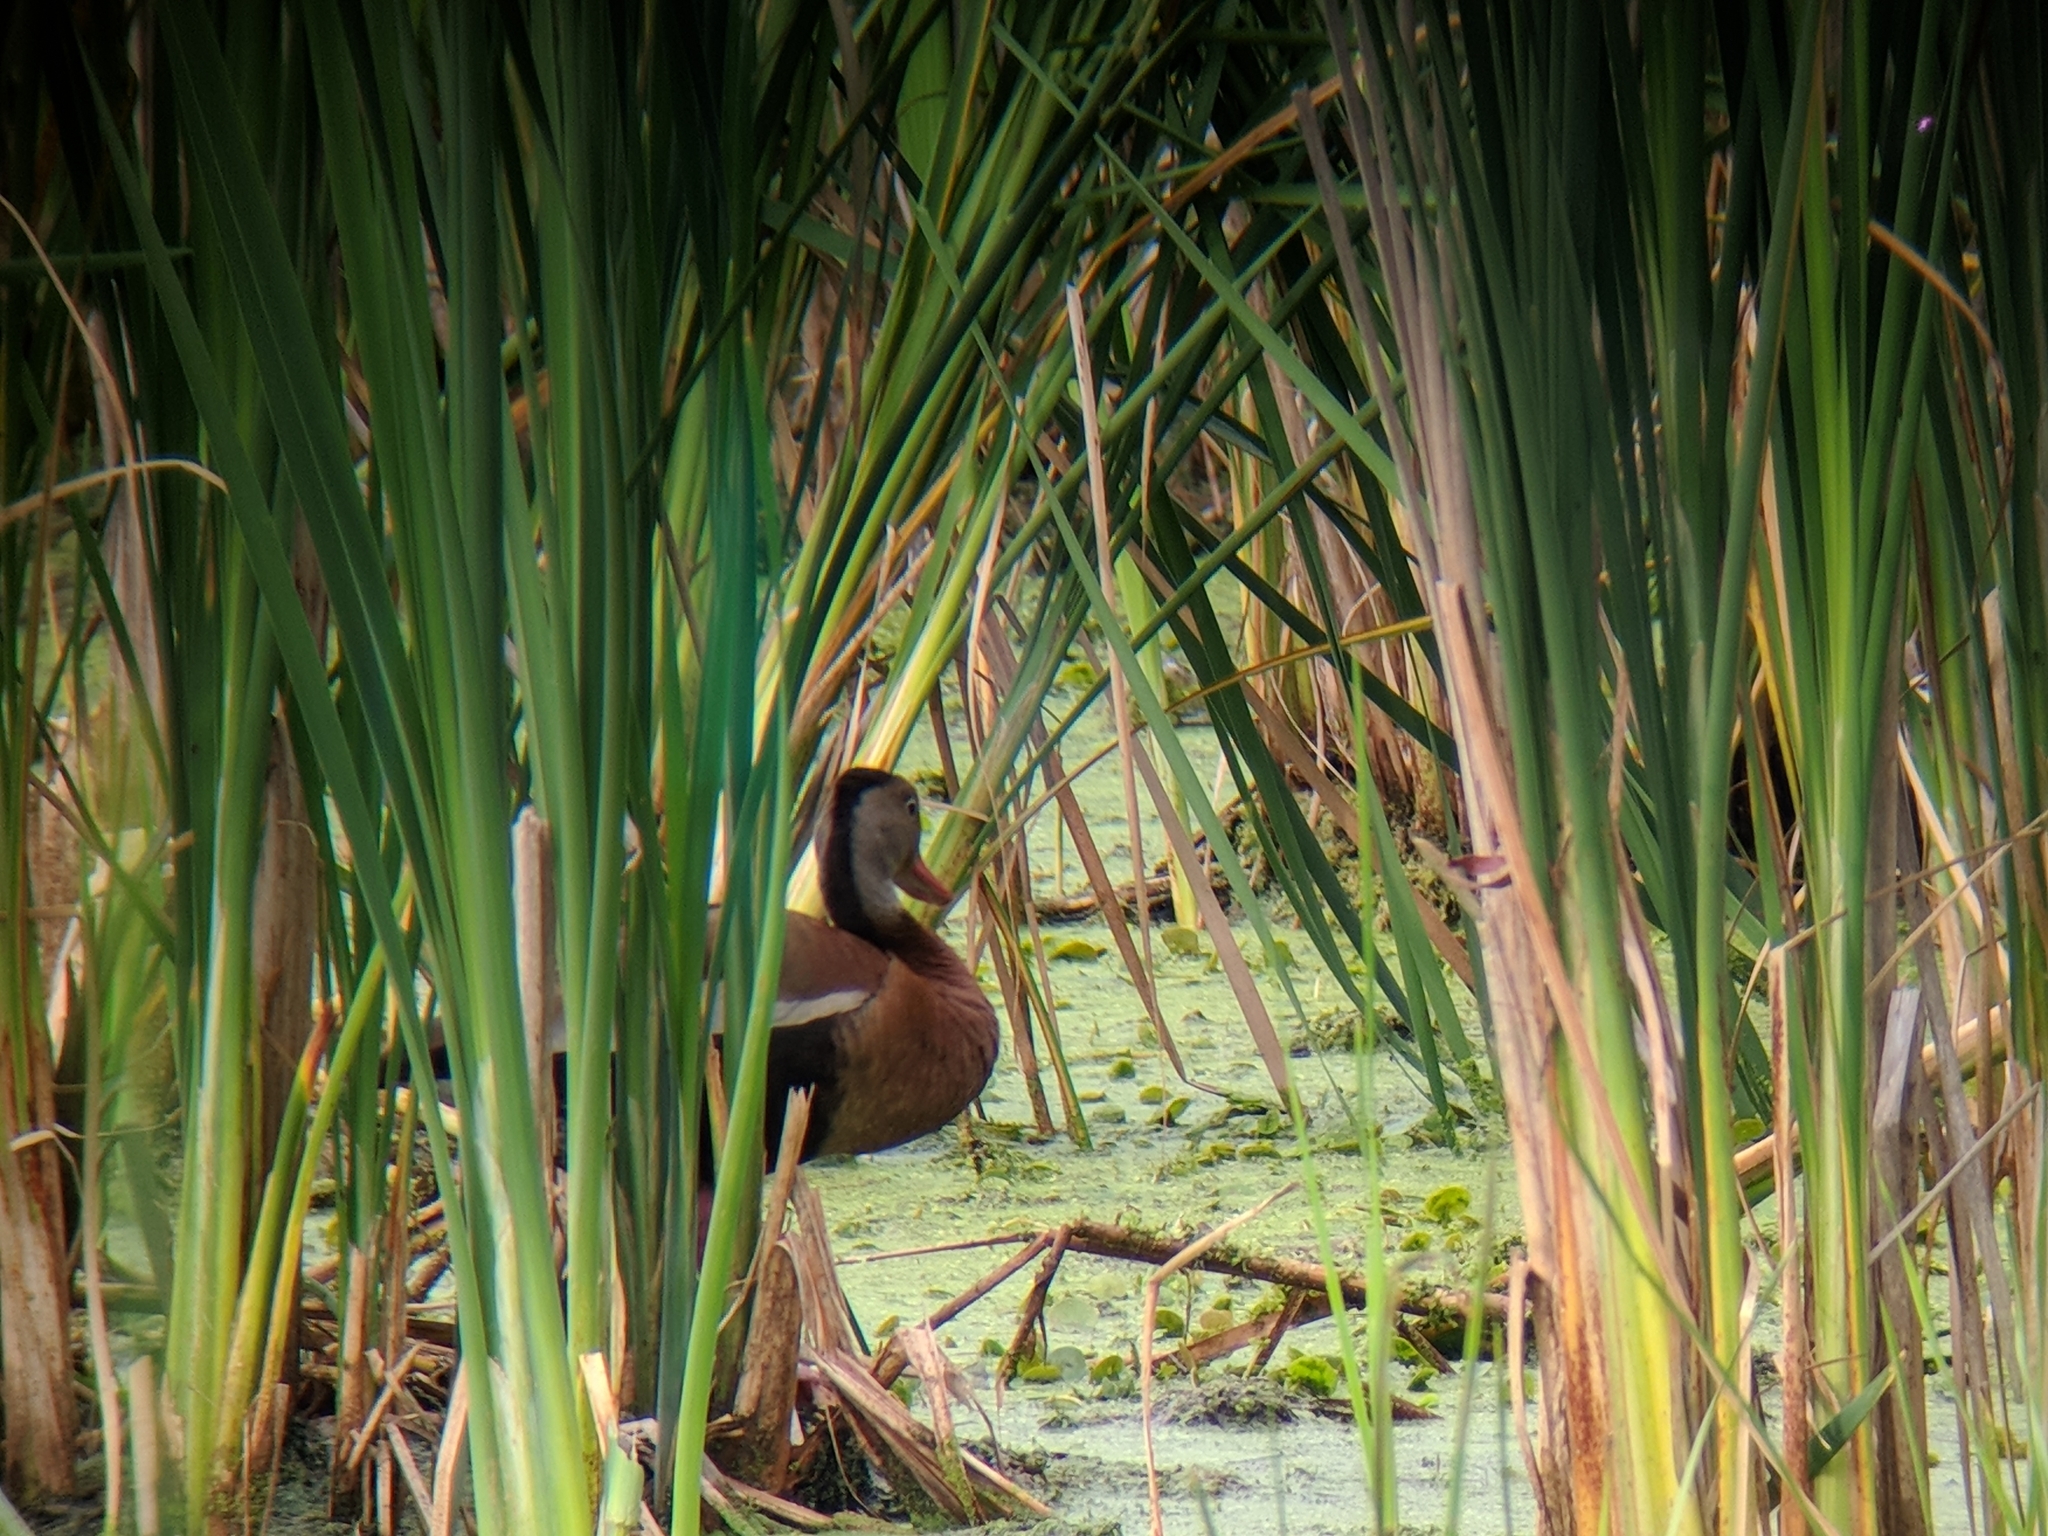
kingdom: Animalia
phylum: Chordata
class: Aves
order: Anseriformes
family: Anatidae
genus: Dendrocygna
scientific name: Dendrocygna autumnalis
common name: Black-bellied whistling duck
